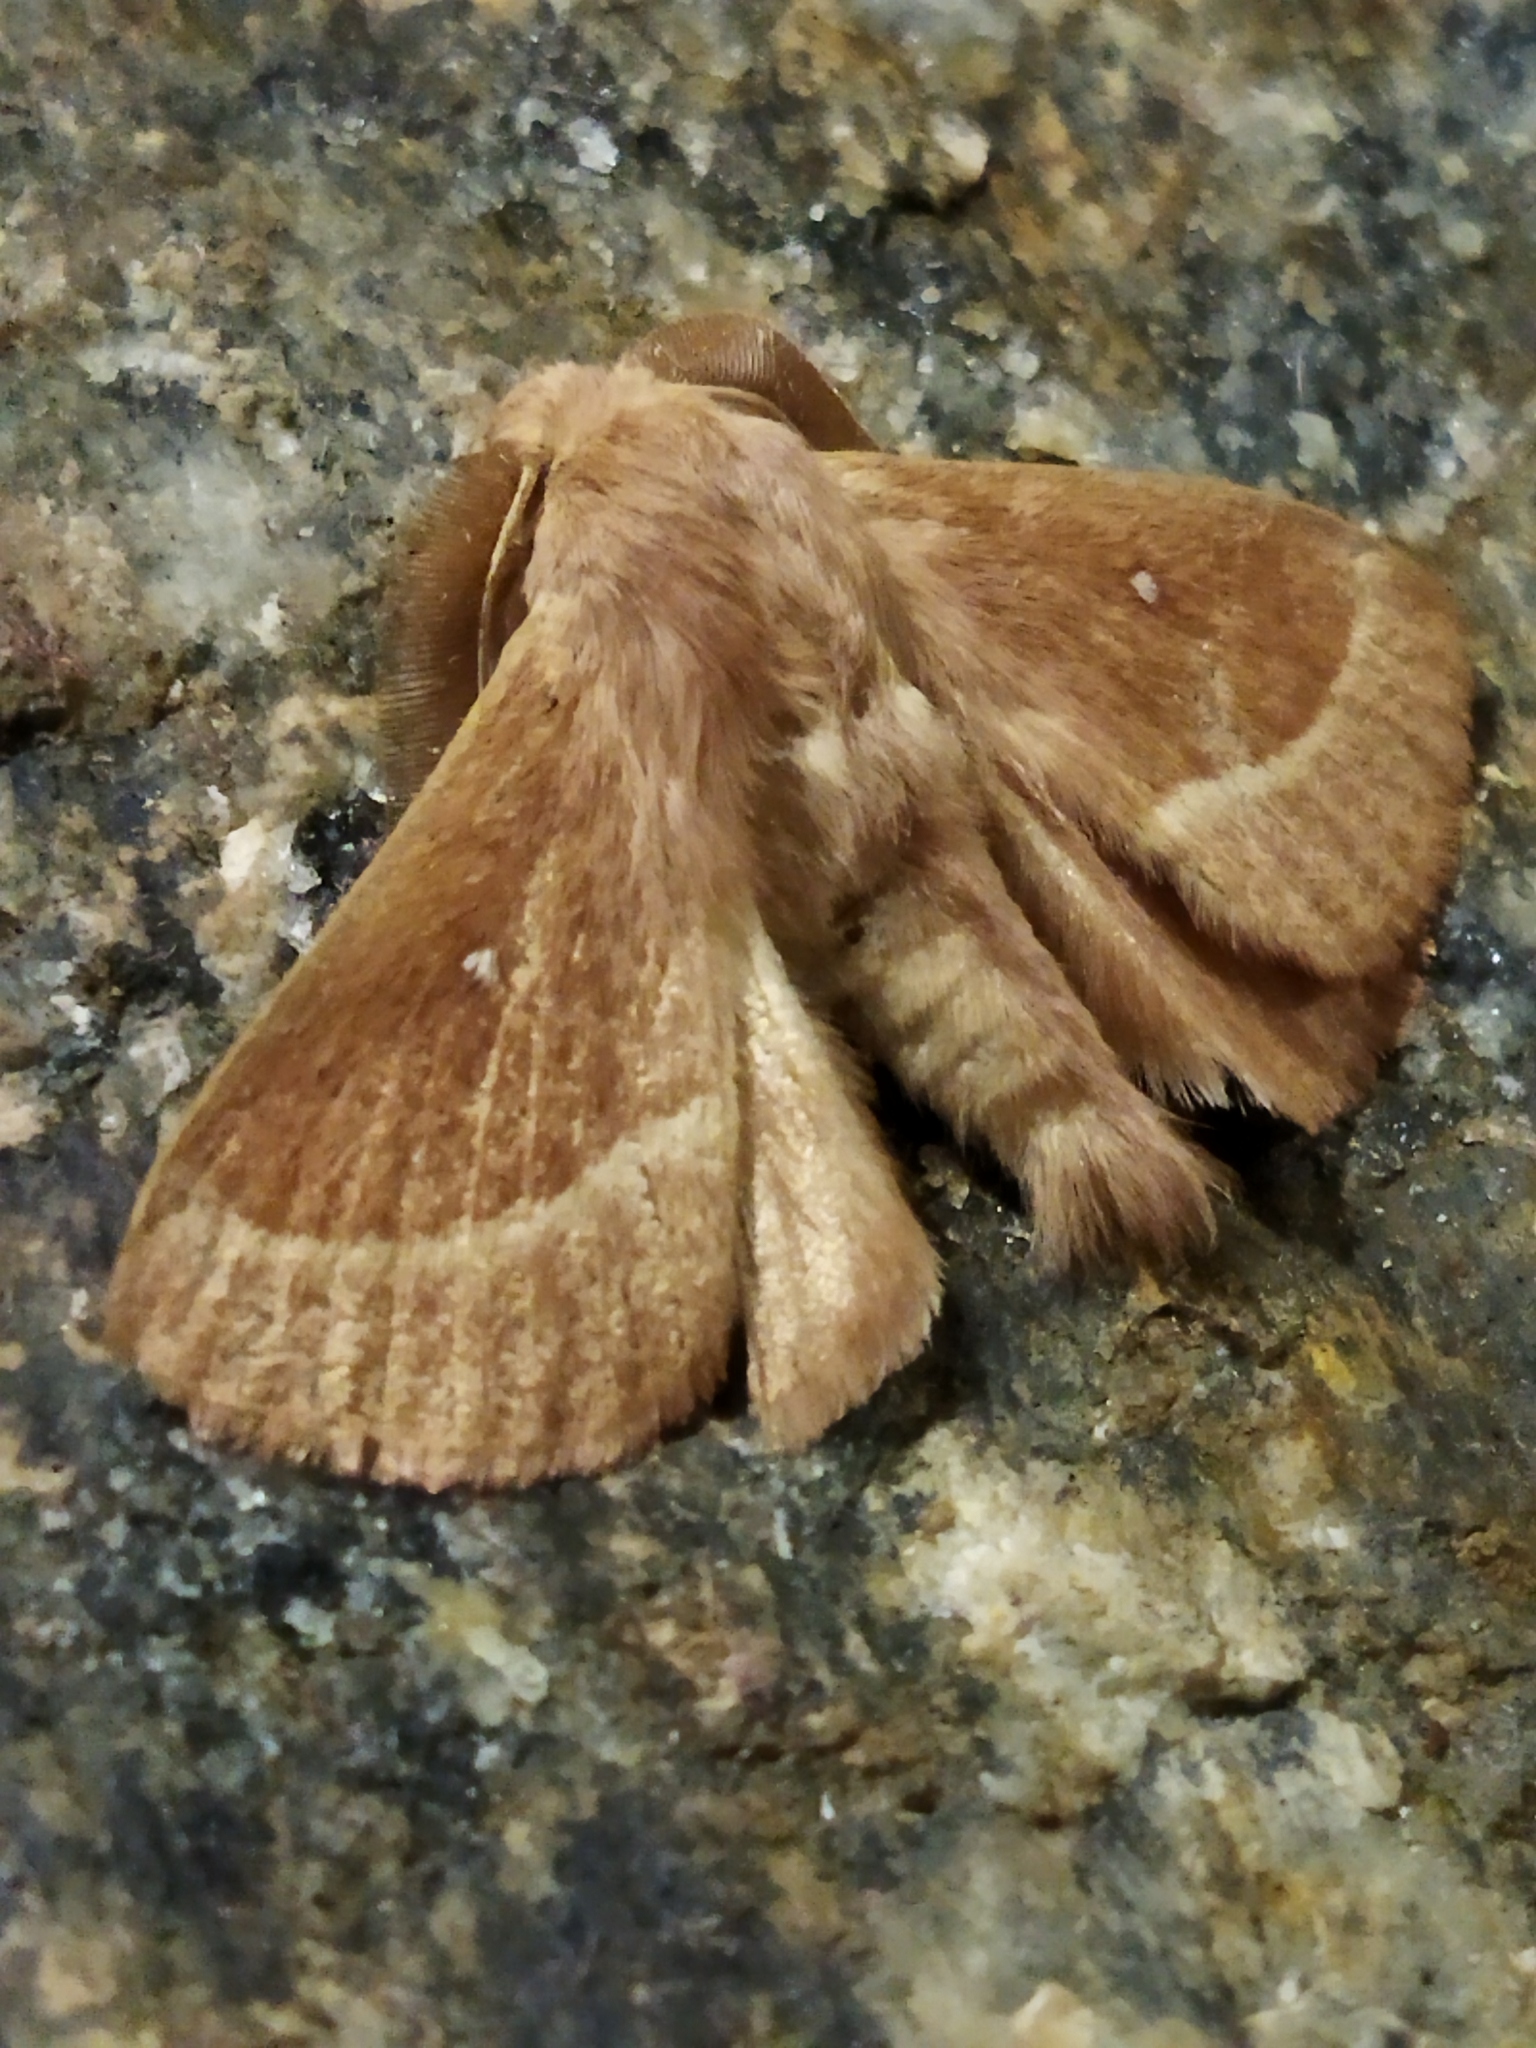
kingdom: Animalia
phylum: Arthropoda
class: Insecta
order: Lepidoptera
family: Lasiocampidae
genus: Lasiocampa
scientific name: Lasiocampa trifolii
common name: Grass eggar
